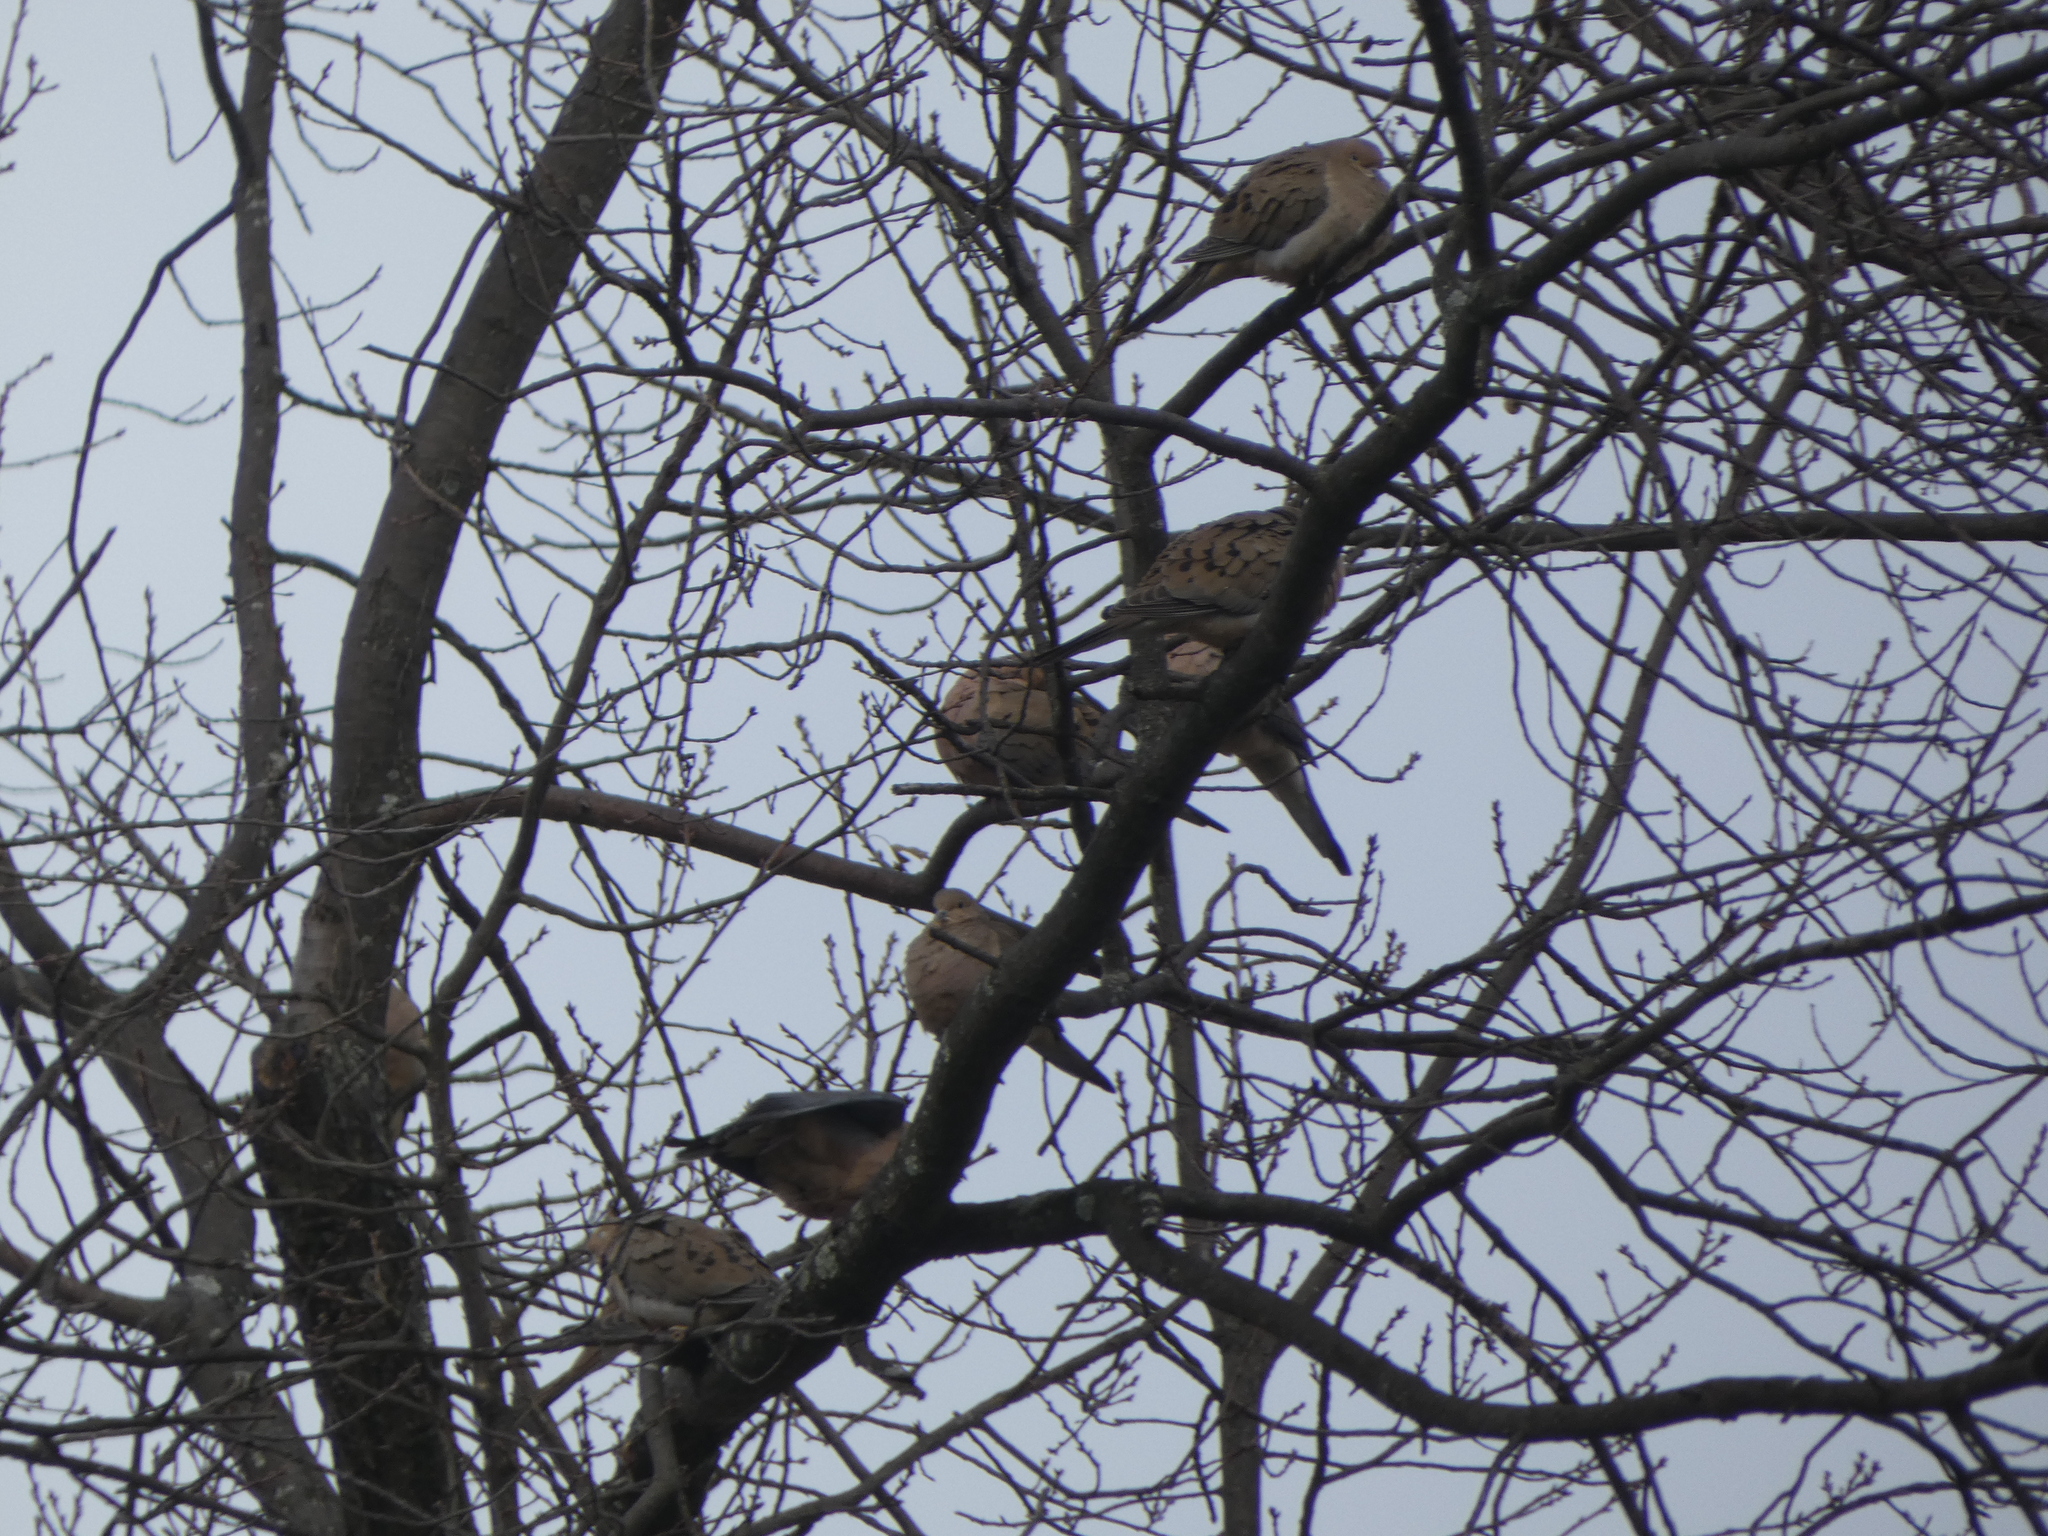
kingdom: Animalia
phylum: Chordata
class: Aves
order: Columbiformes
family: Columbidae
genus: Zenaida
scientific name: Zenaida macroura
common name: Mourning dove
